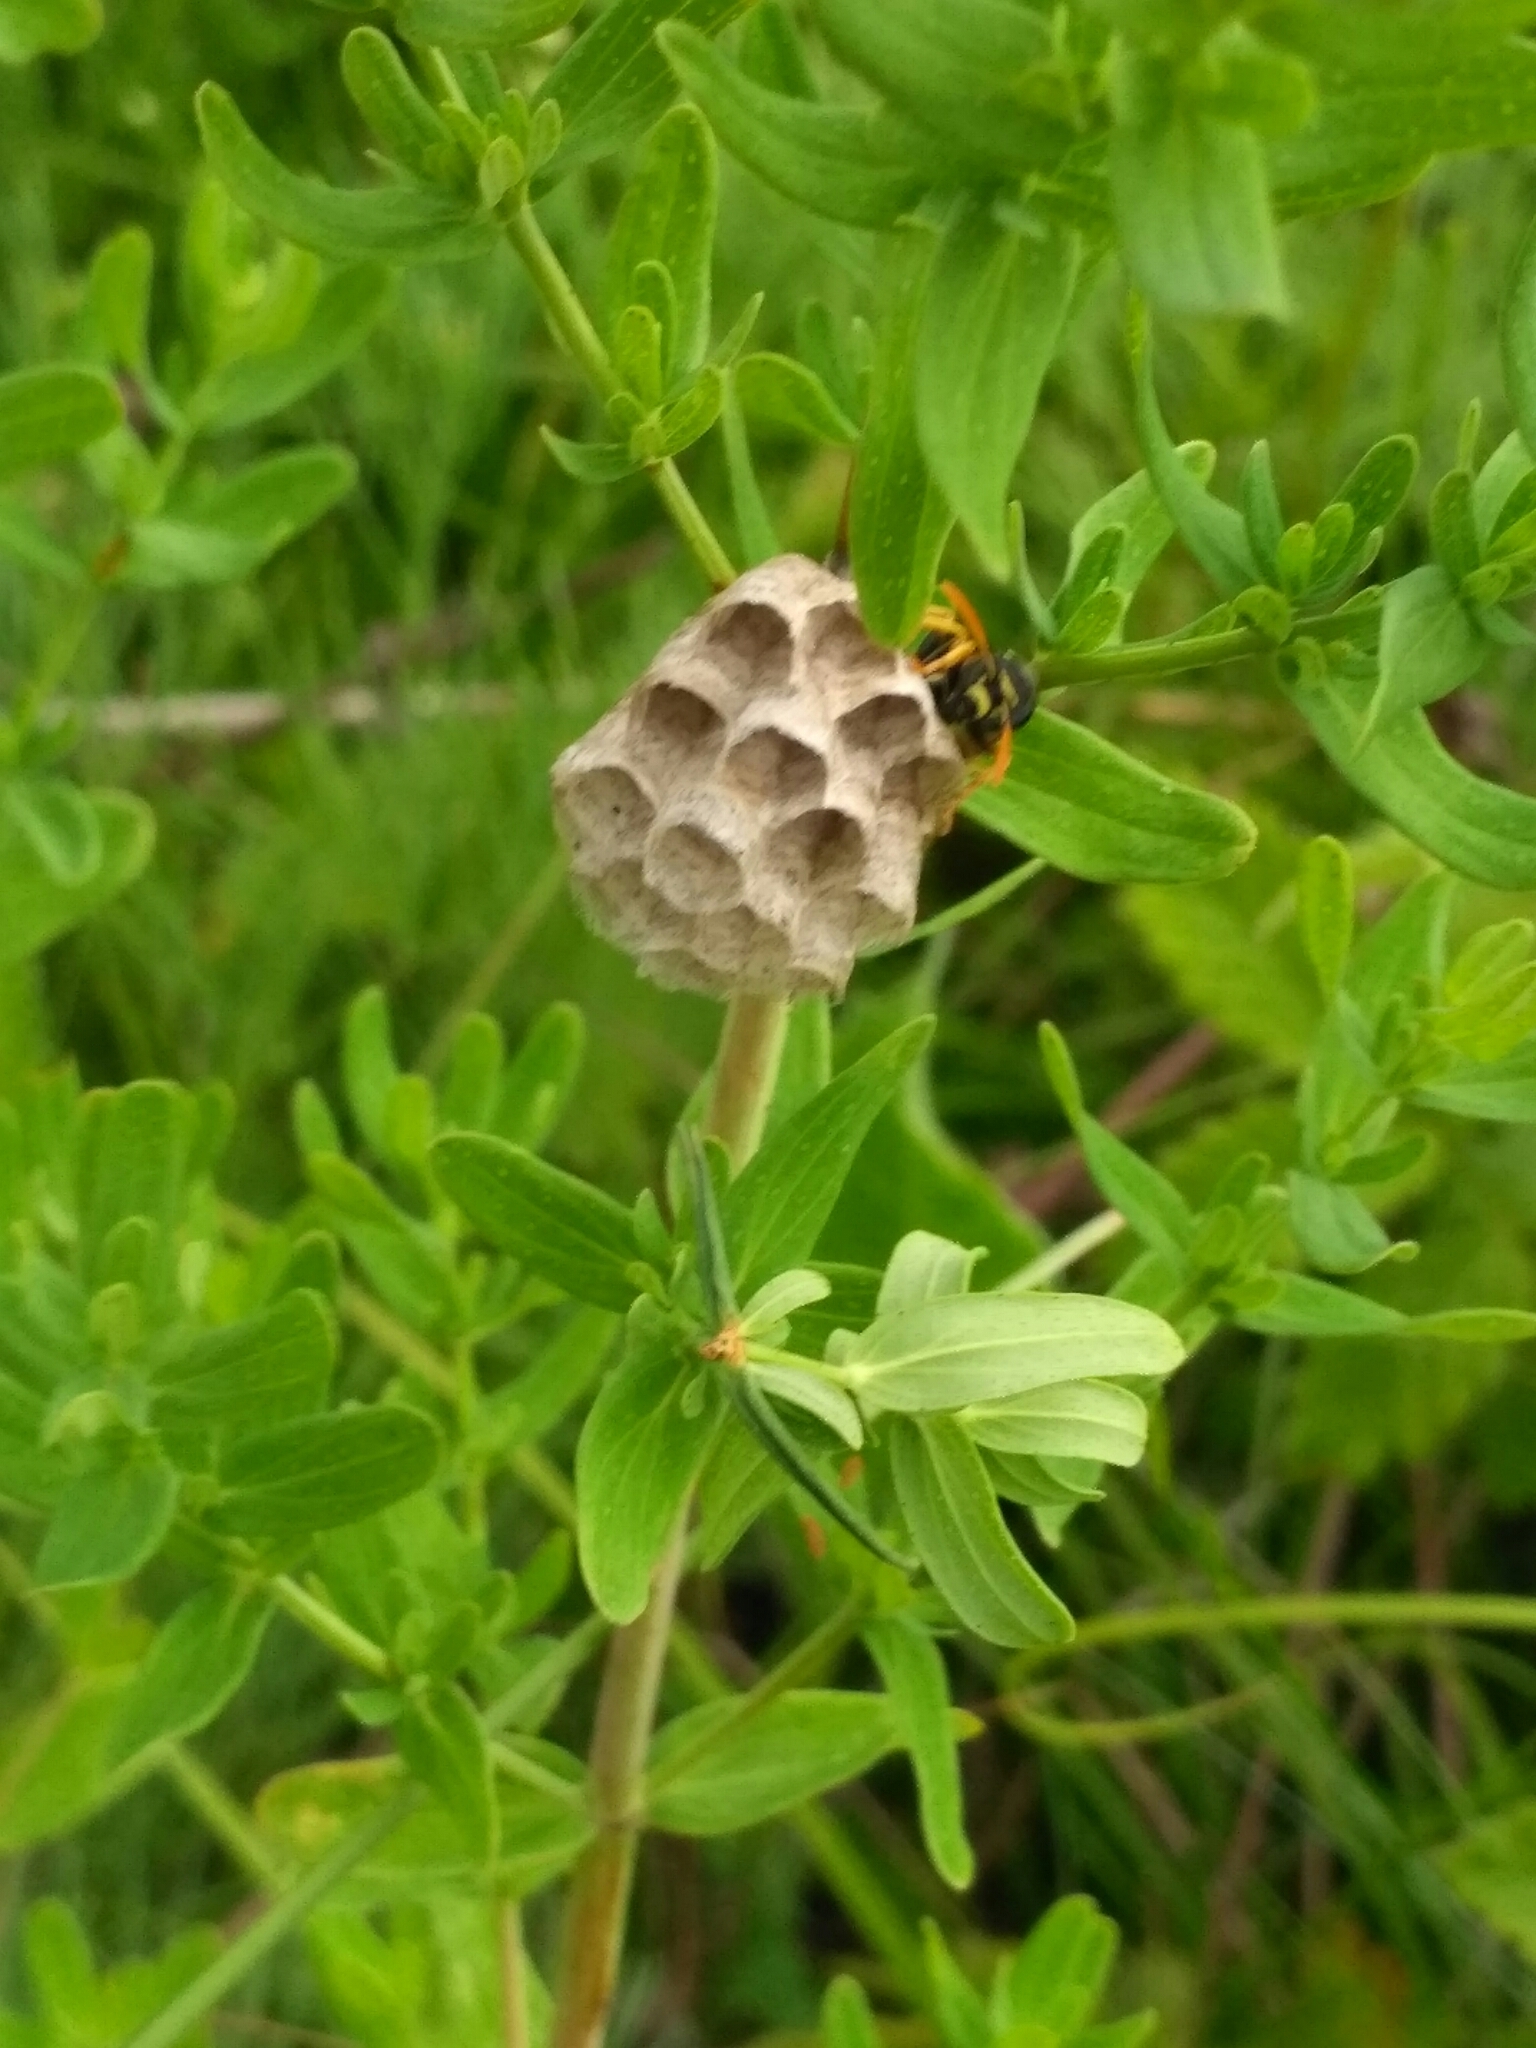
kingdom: Animalia
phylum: Arthropoda
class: Insecta
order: Hymenoptera
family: Eumenidae
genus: Polistes
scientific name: Polistes
